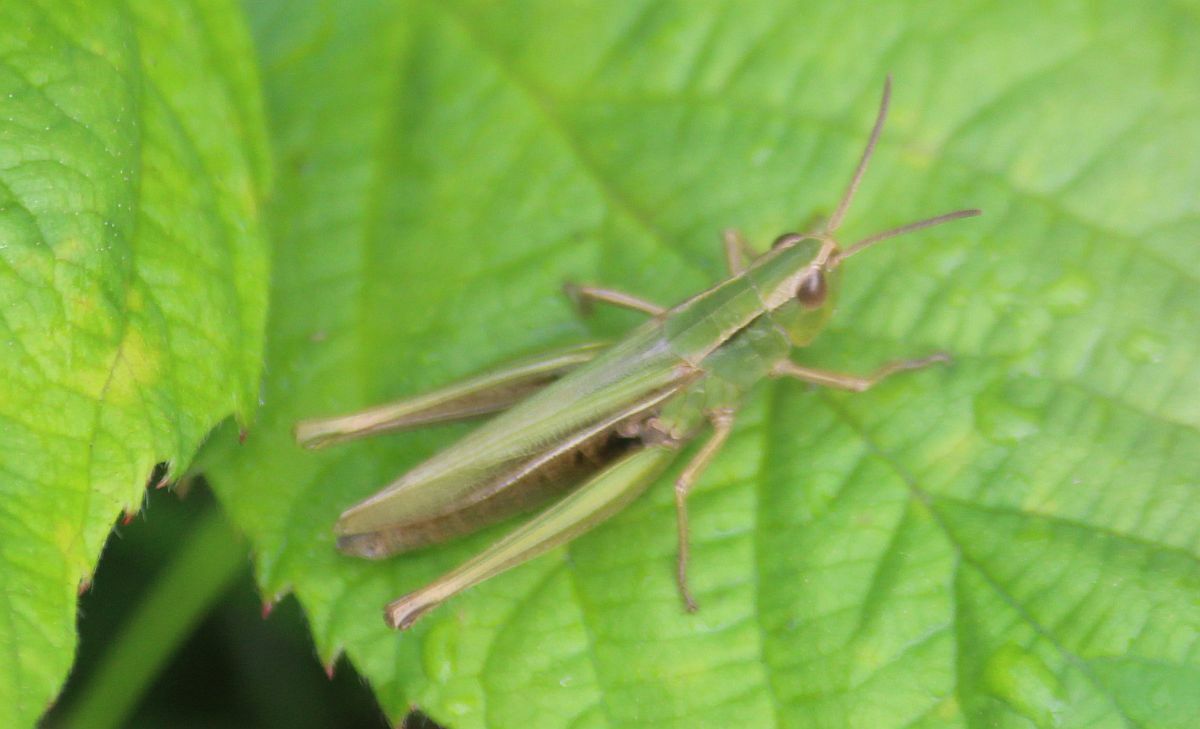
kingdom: Animalia
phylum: Arthropoda
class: Insecta
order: Orthoptera
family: Acrididae
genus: Chorthippus
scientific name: Chorthippus albomarginatus
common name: Lesser marsh grasshopper
